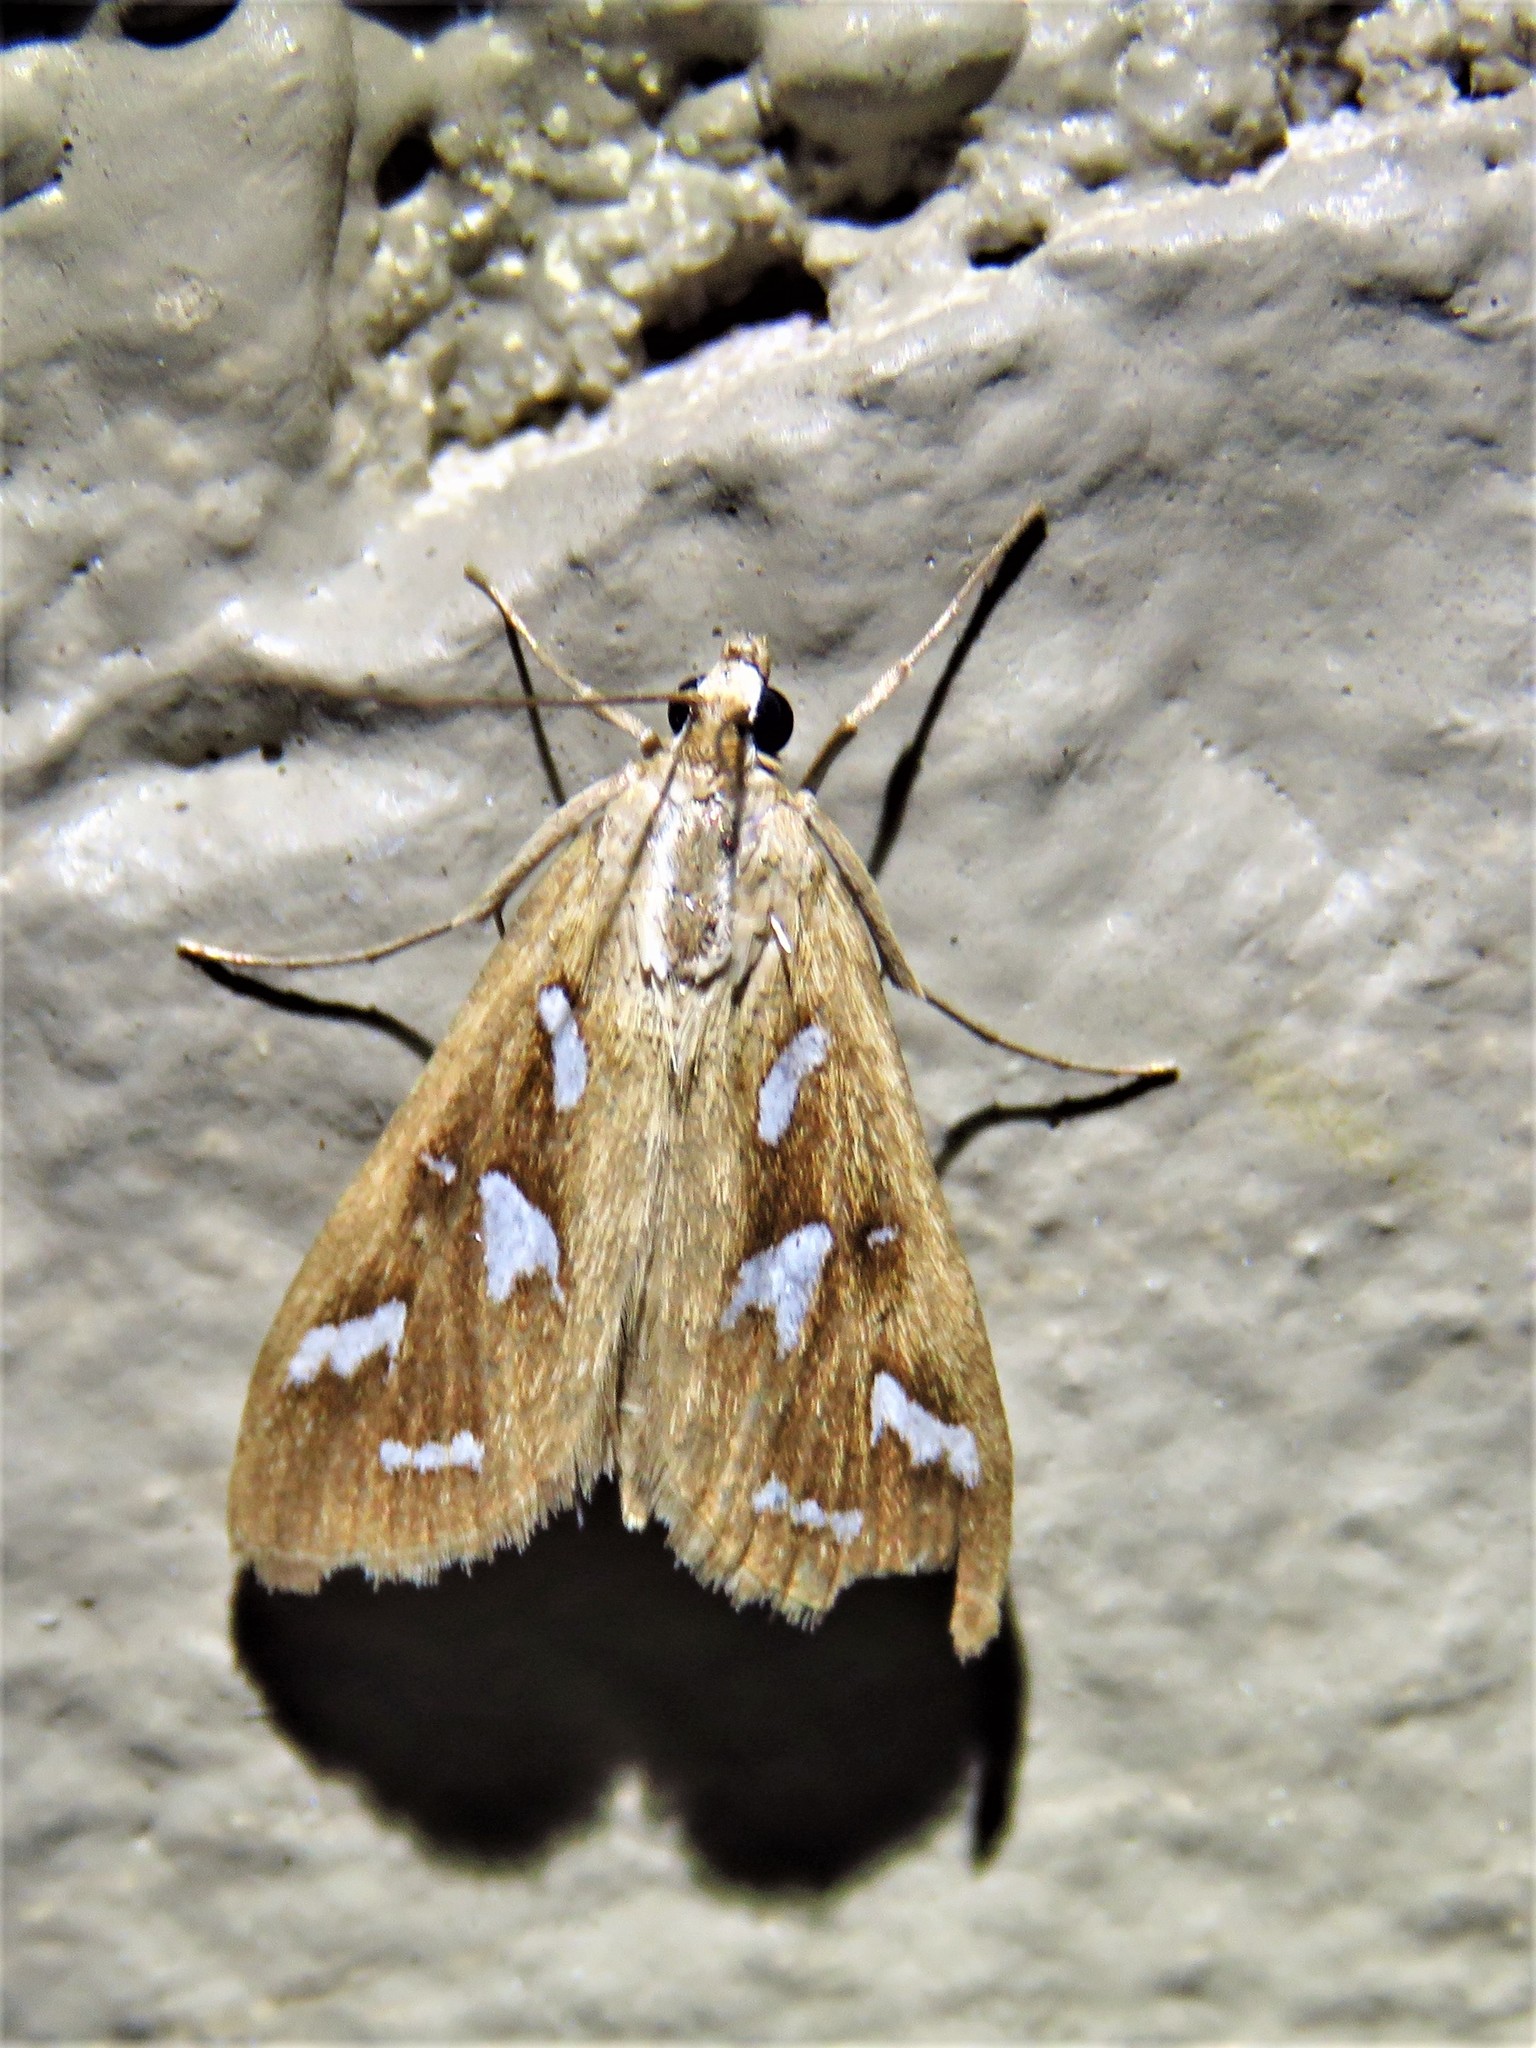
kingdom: Animalia
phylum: Arthropoda
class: Insecta
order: Lepidoptera
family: Crambidae
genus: Diastictis
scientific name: Diastictis fracturalis
